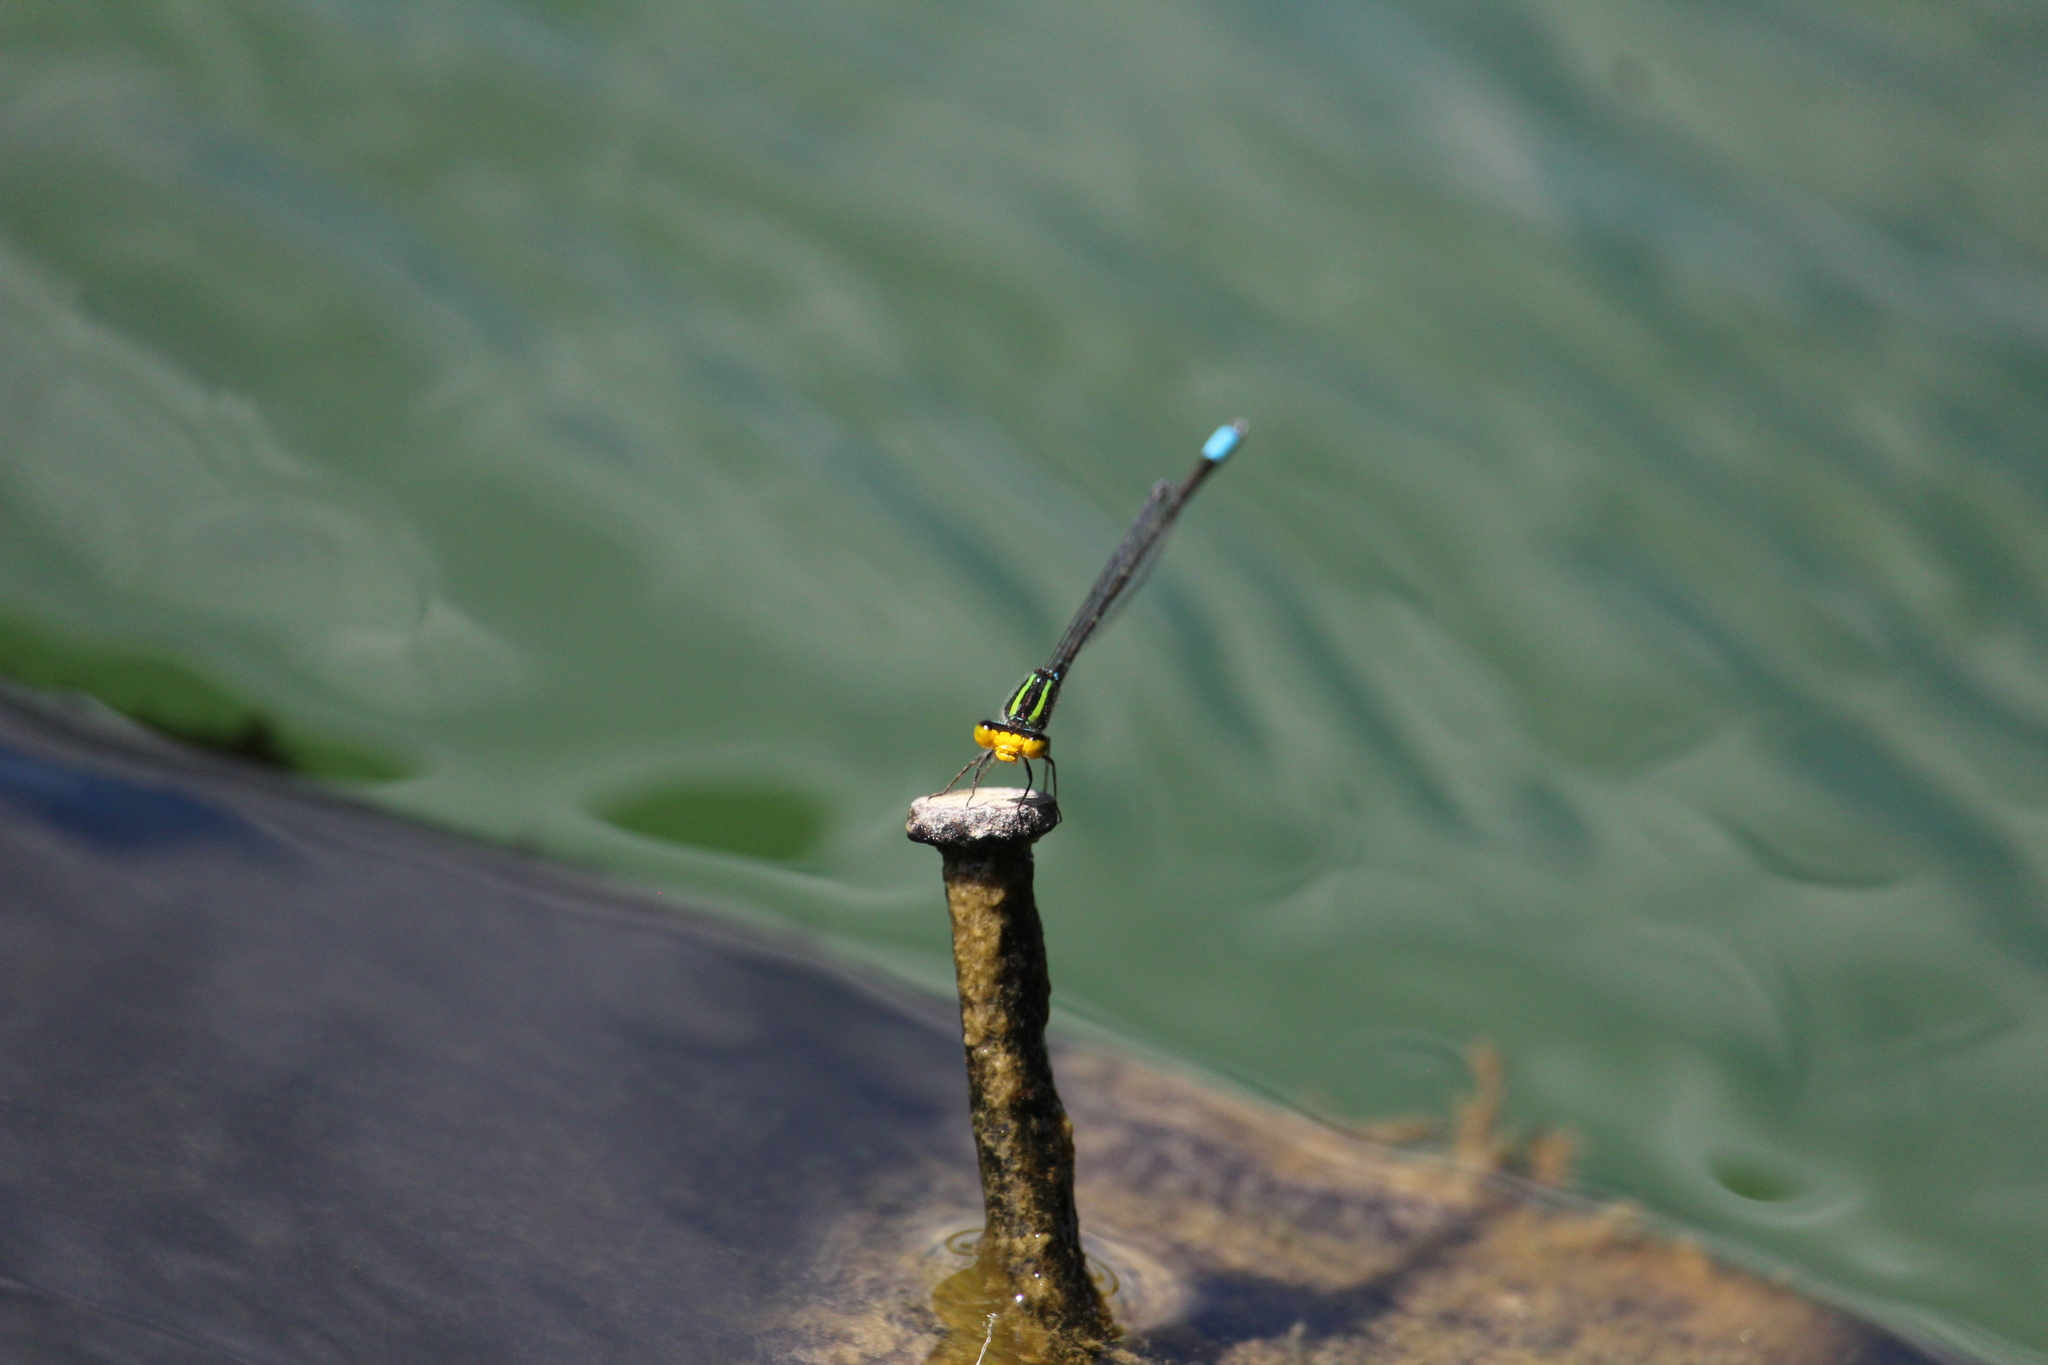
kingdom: Animalia
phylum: Arthropoda
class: Insecta
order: Odonata
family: Coenagrionidae
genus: Neoerythromma
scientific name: Neoerythromma cultellatum
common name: Caribbean yellowface
